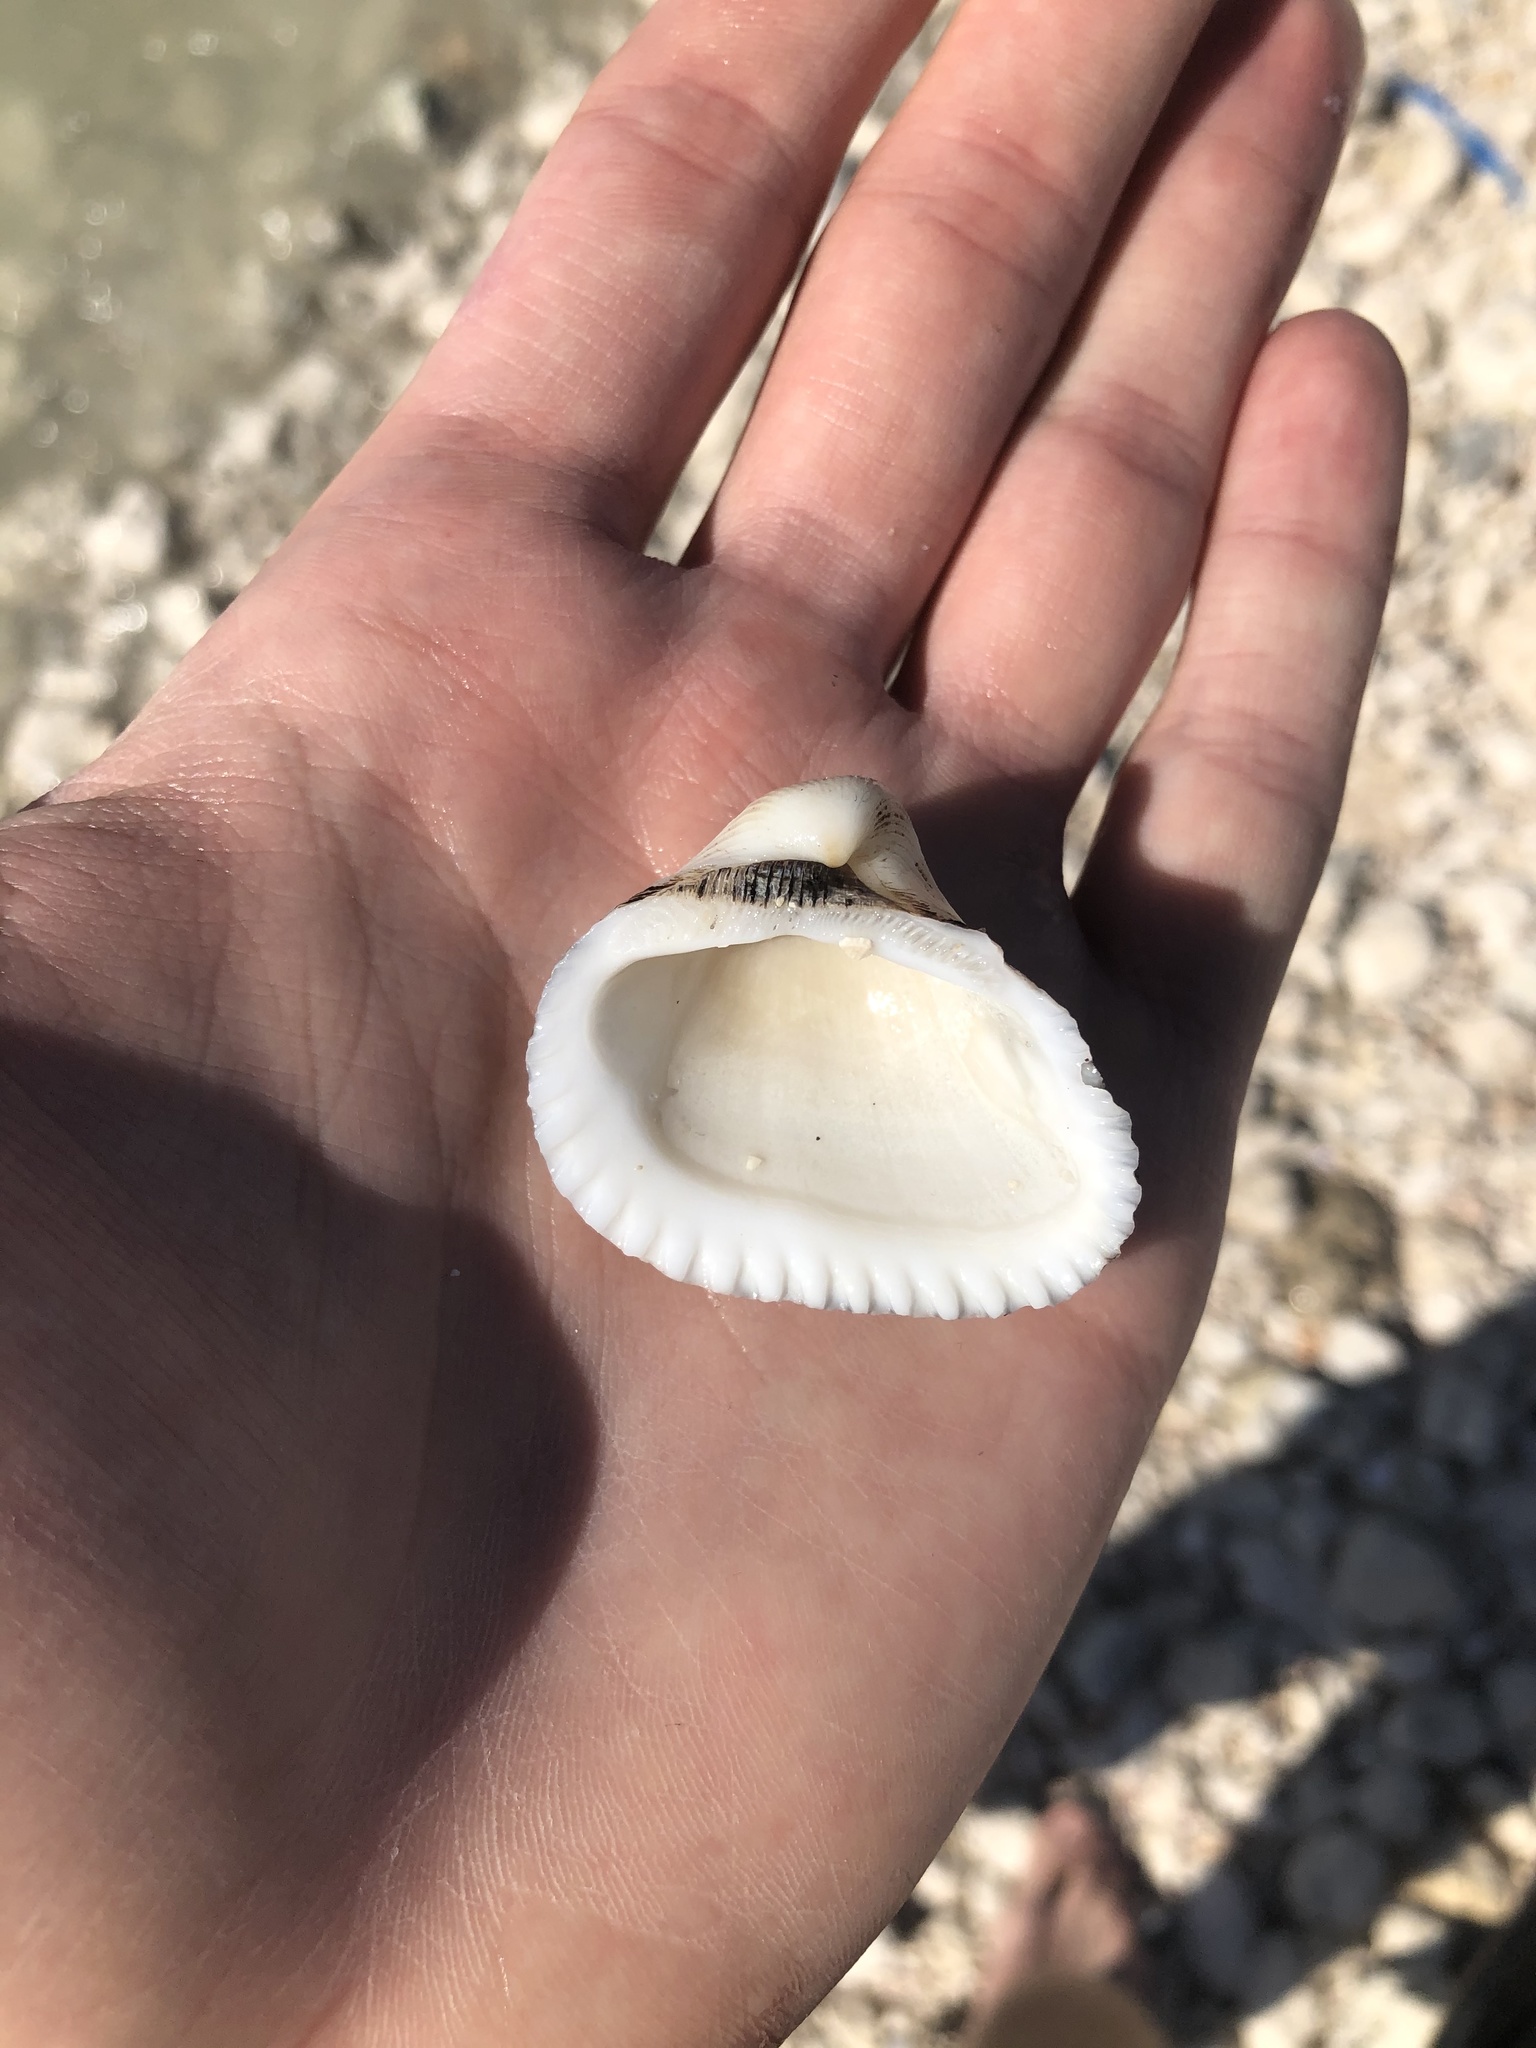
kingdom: Animalia
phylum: Mollusca
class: Bivalvia
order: Arcida
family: Noetiidae
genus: Noetia
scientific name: Noetia ponderosa
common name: Ponderous ark
